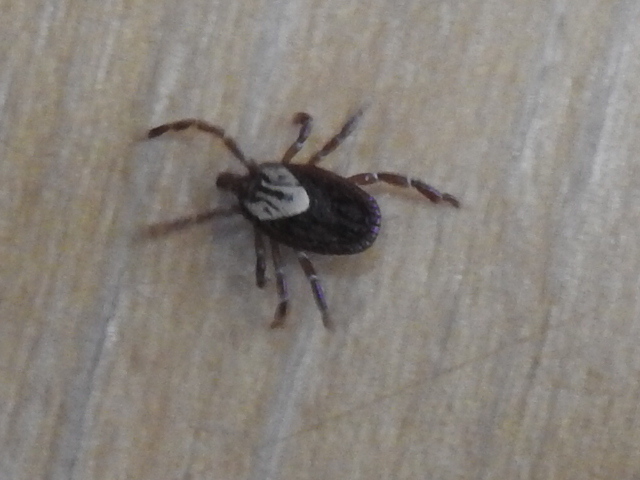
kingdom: Animalia
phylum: Arthropoda
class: Arachnida
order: Ixodida
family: Ixodidae
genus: Amblyomma
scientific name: Amblyomma maculatum
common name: Gulf coast tick
